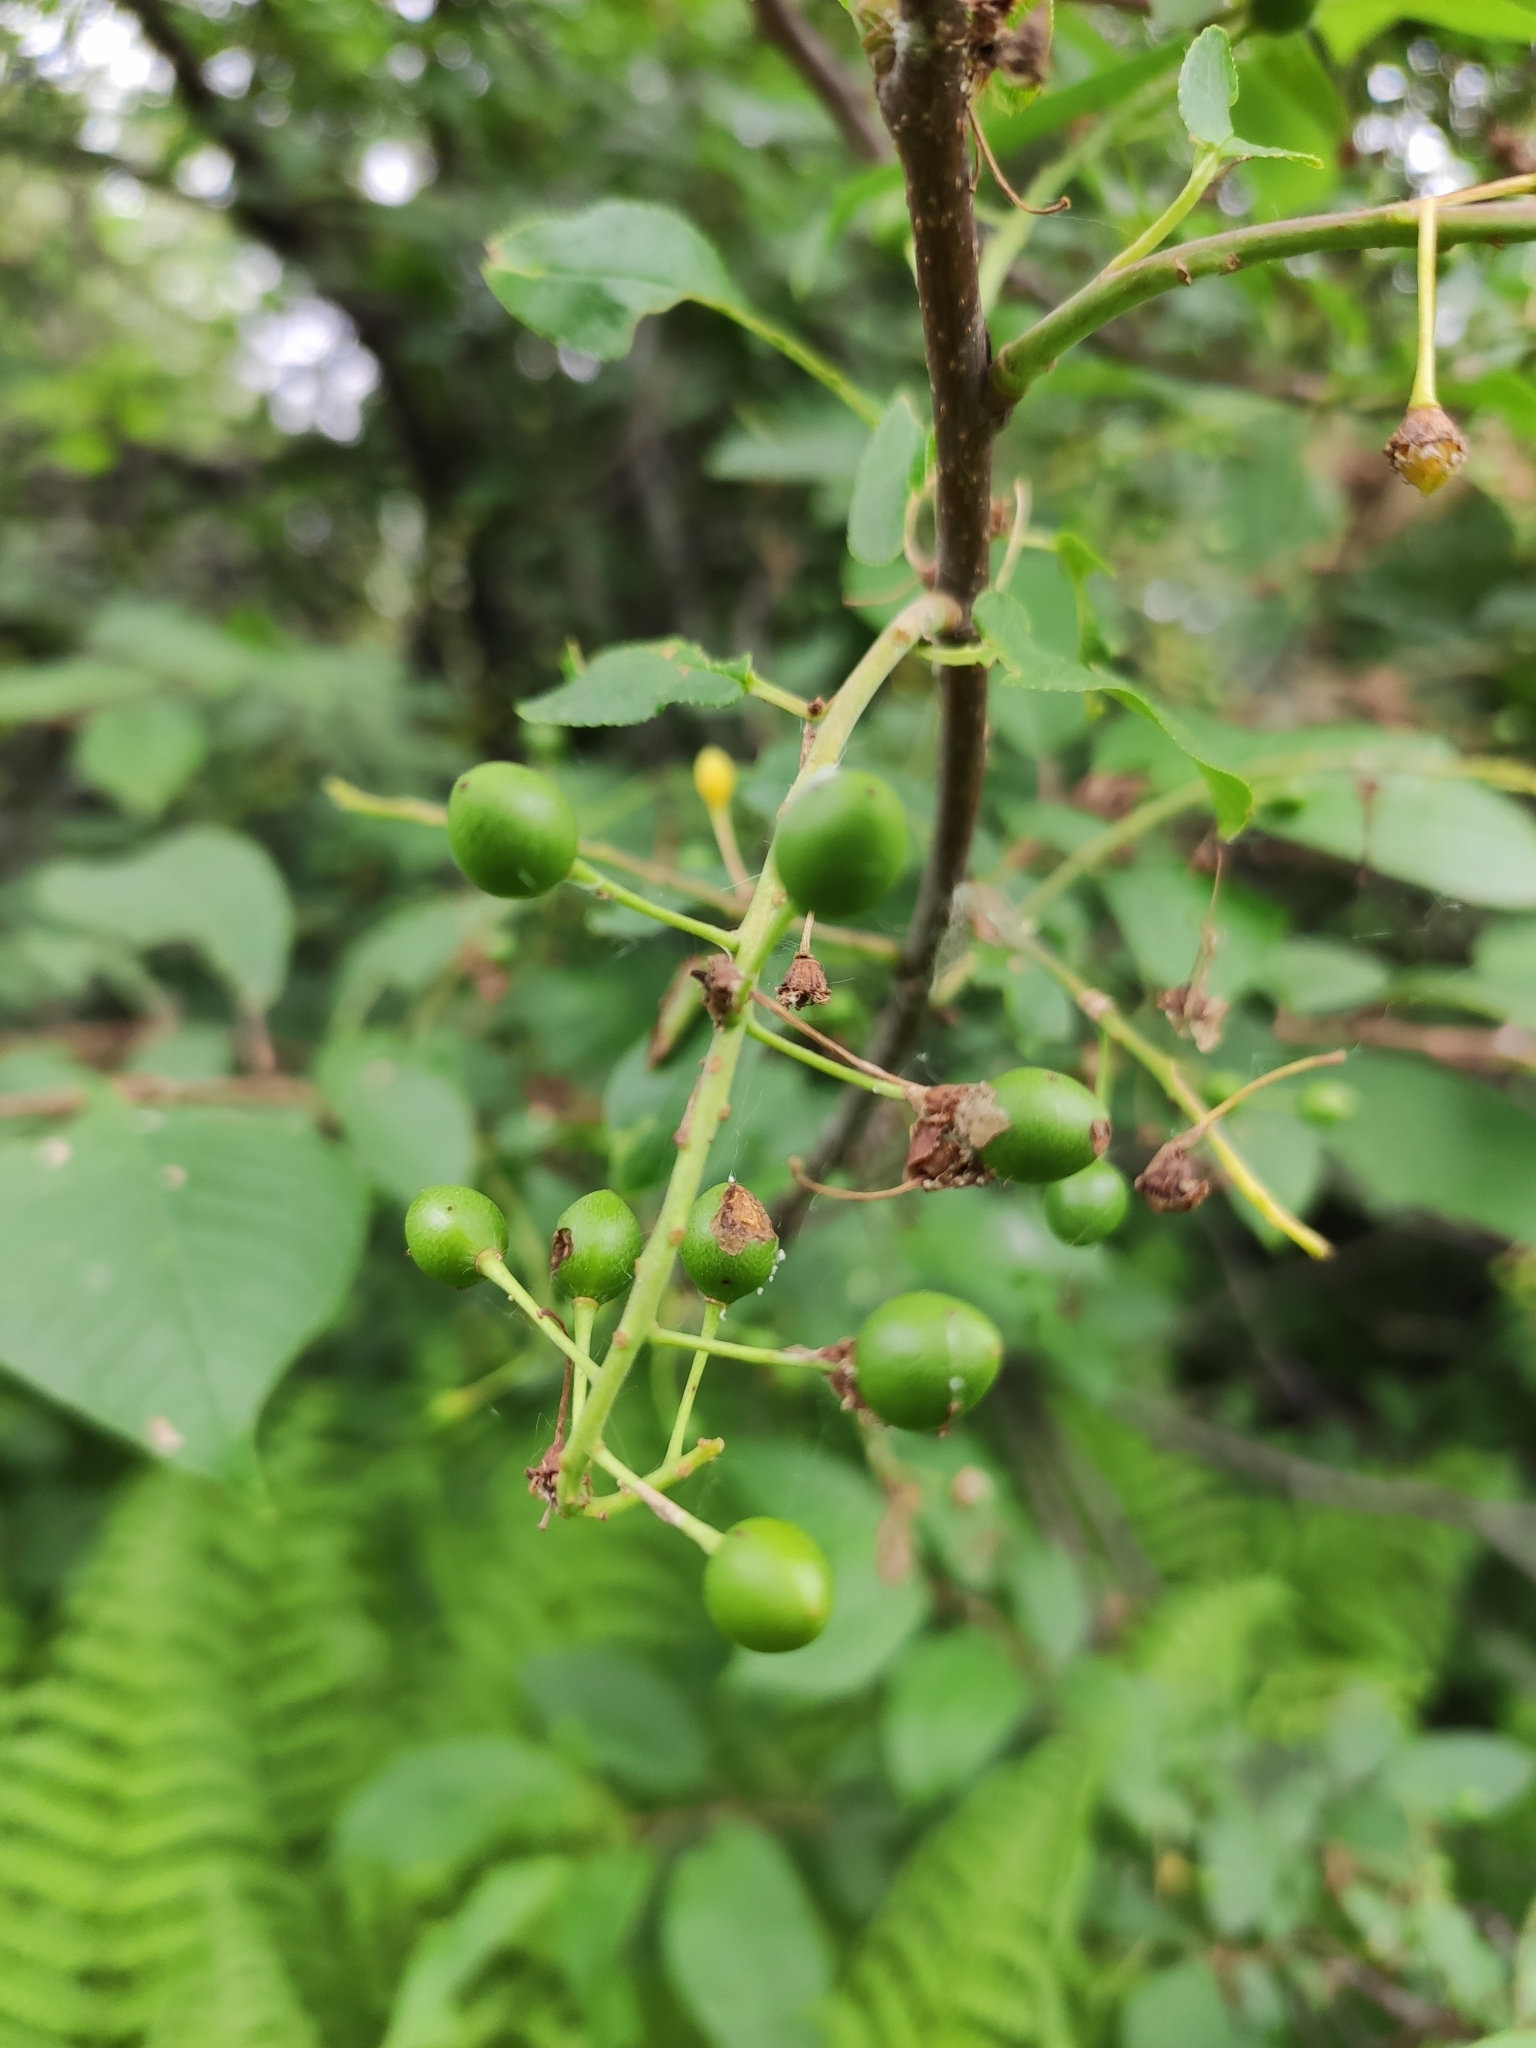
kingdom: Plantae
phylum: Tracheophyta
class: Magnoliopsida
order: Rosales
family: Rosaceae
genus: Prunus
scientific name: Prunus padus
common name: Bird cherry
